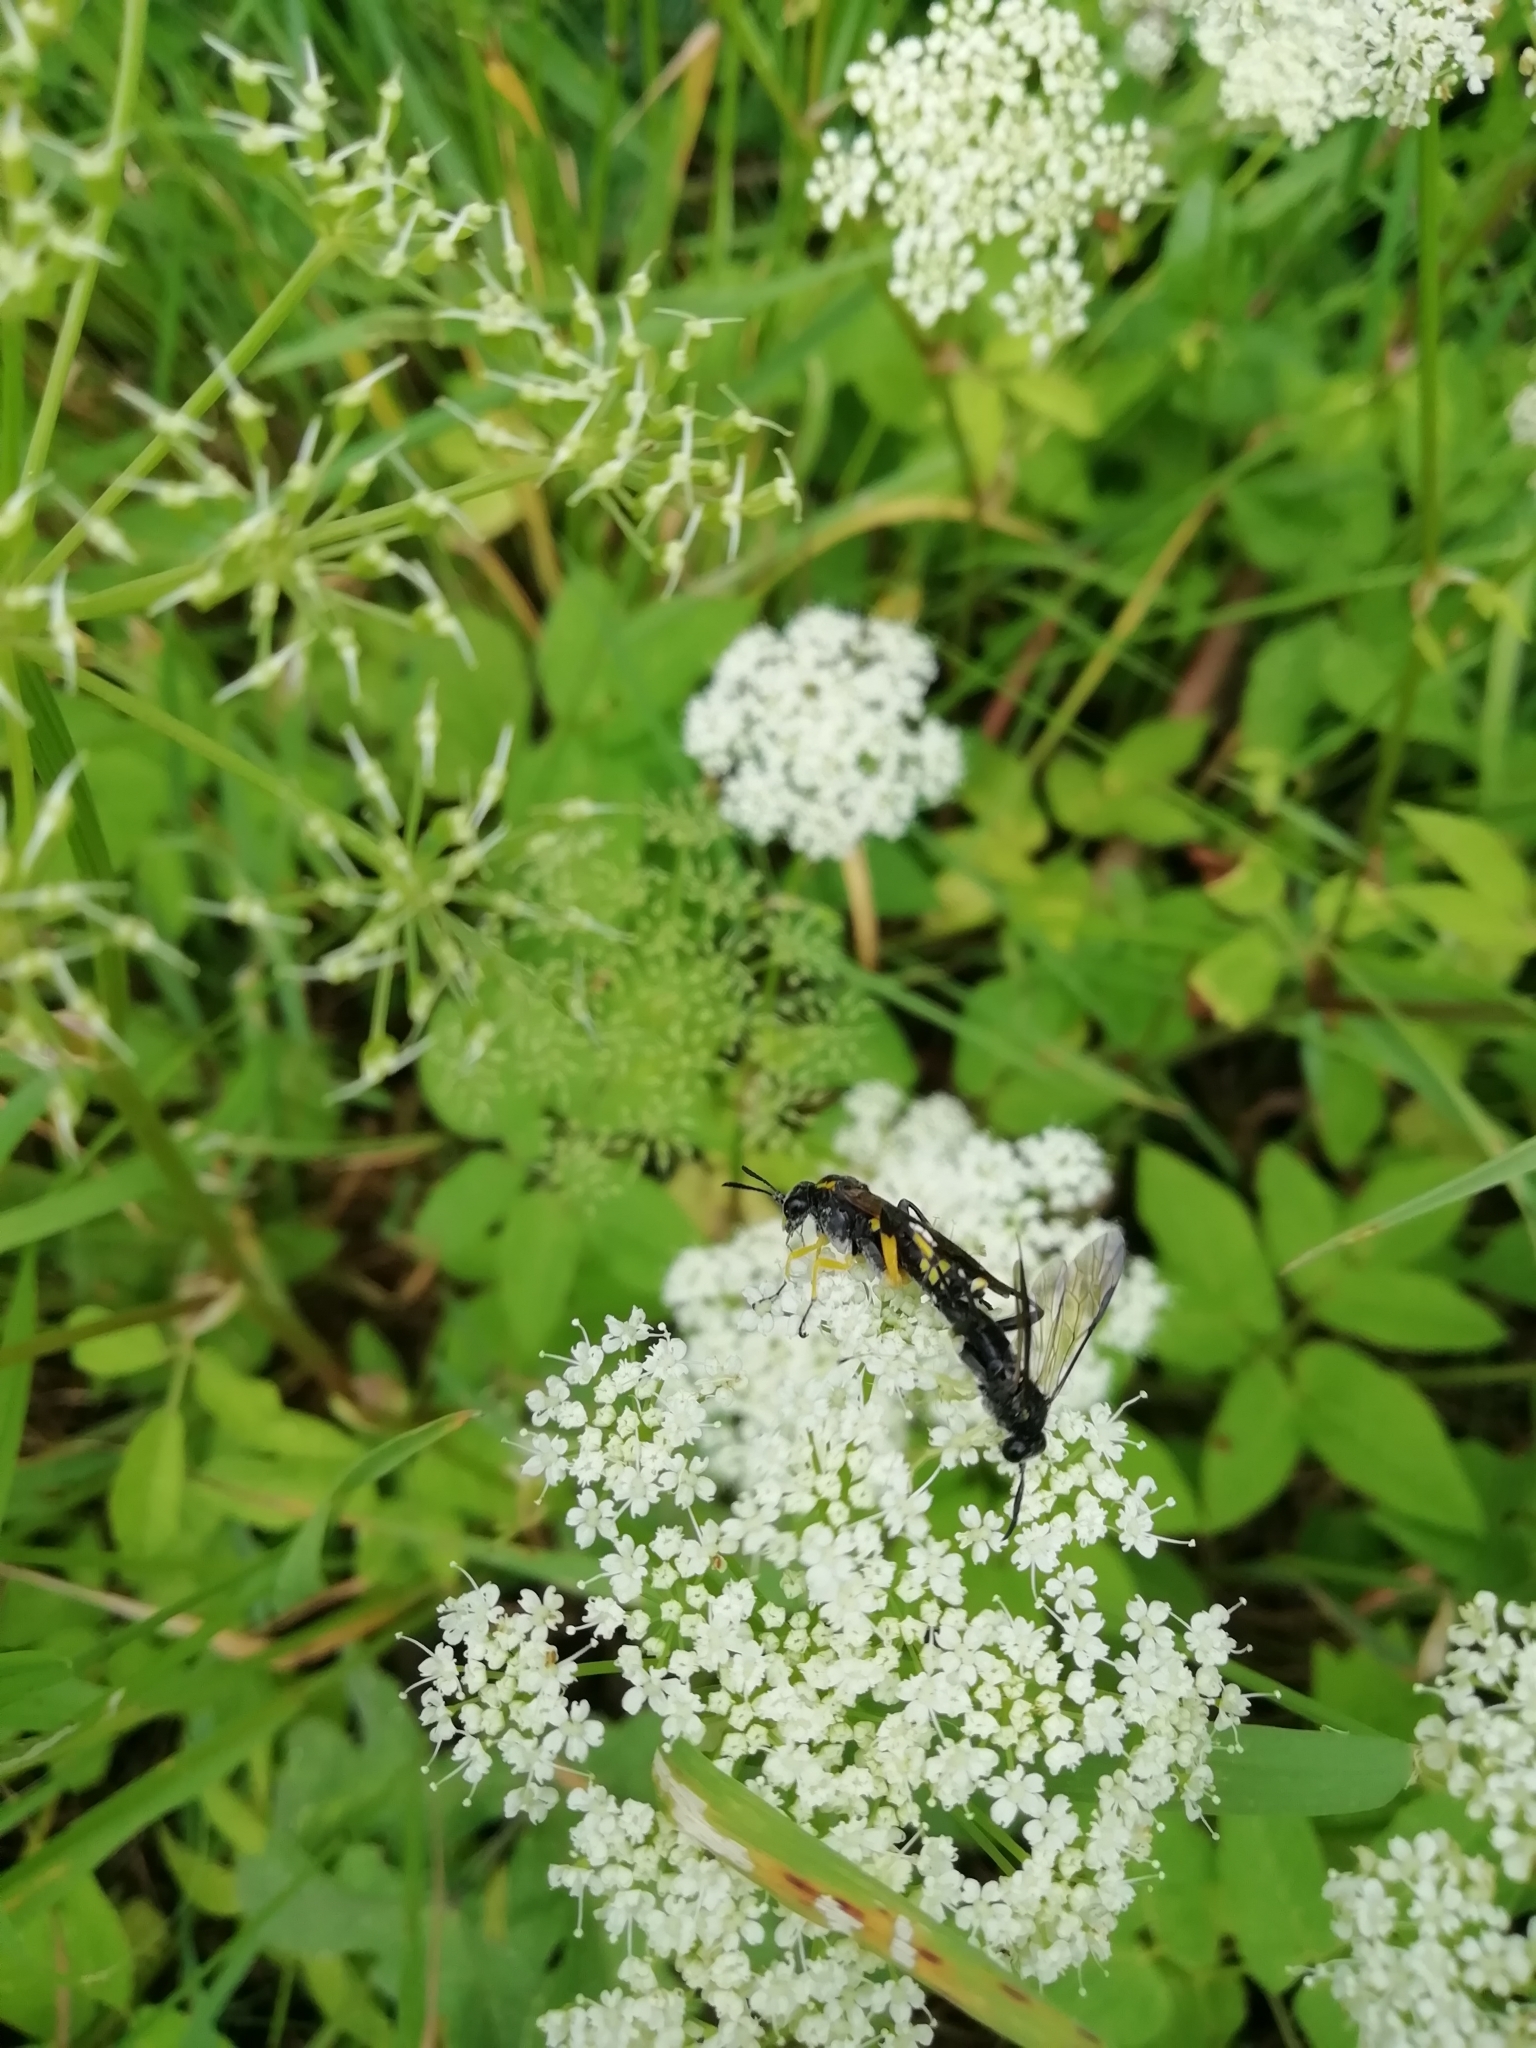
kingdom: Animalia
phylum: Arthropoda
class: Insecta
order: Hymenoptera
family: Tenthredinidae
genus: Macrophya
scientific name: Macrophya montana
